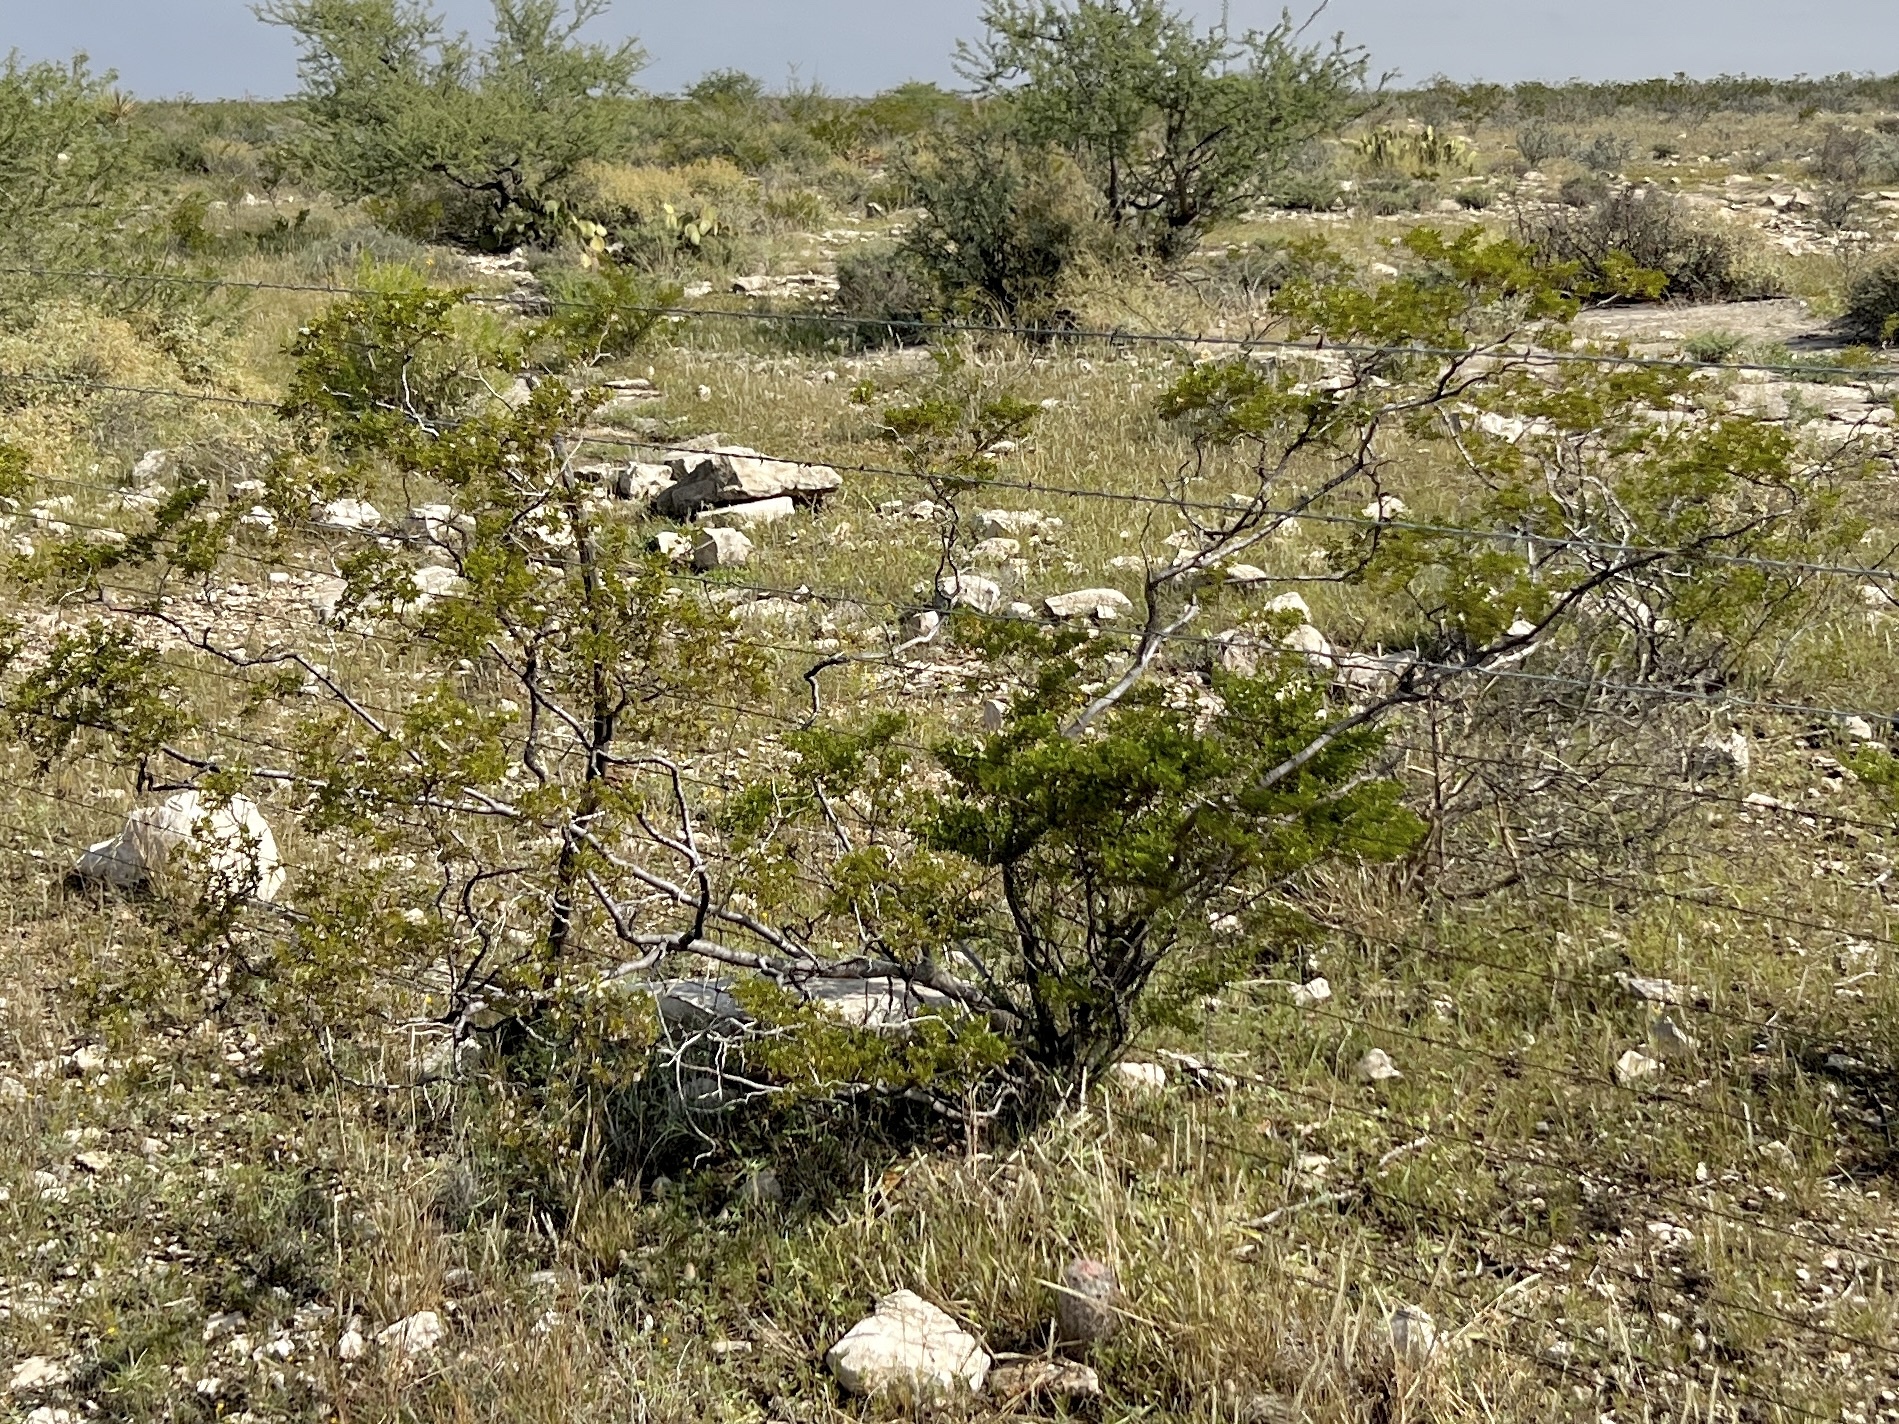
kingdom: Plantae
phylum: Tracheophyta
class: Magnoliopsida
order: Zygophyllales
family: Zygophyllaceae
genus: Larrea
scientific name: Larrea tridentata
